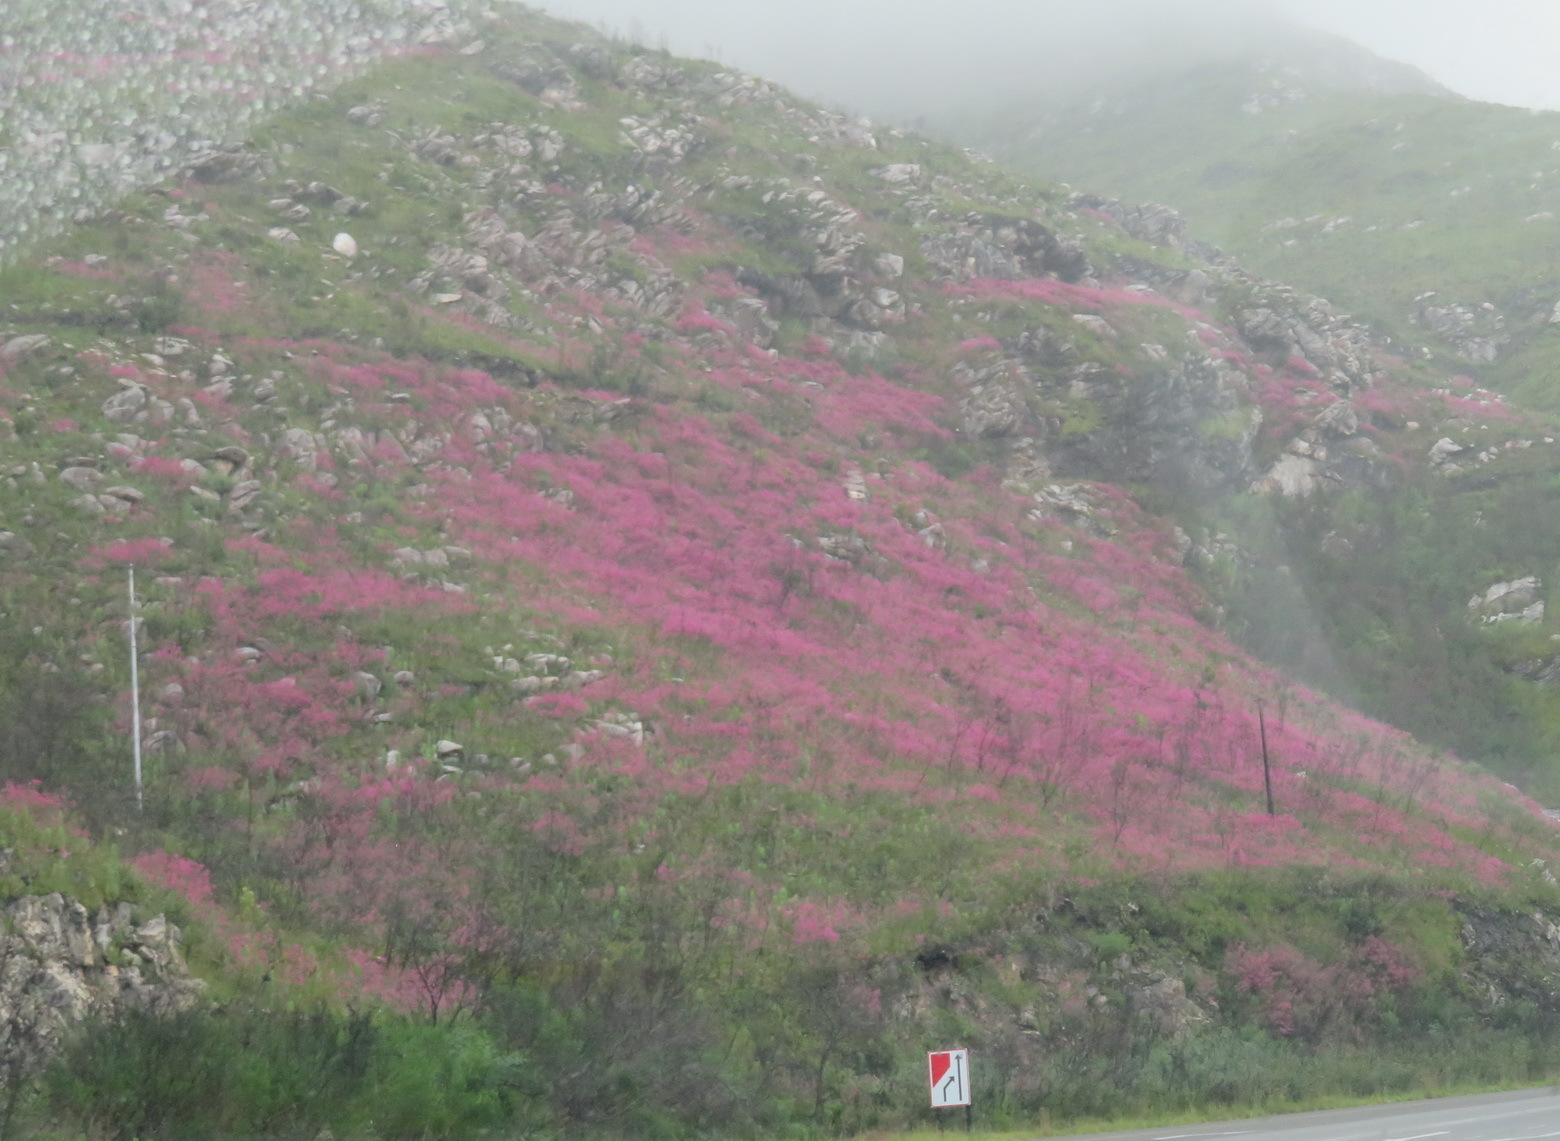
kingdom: Plantae
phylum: Tracheophyta
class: Magnoliopsida
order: Fabales
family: Fabaceae
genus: Indigofera
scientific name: Indigofera filifolia
